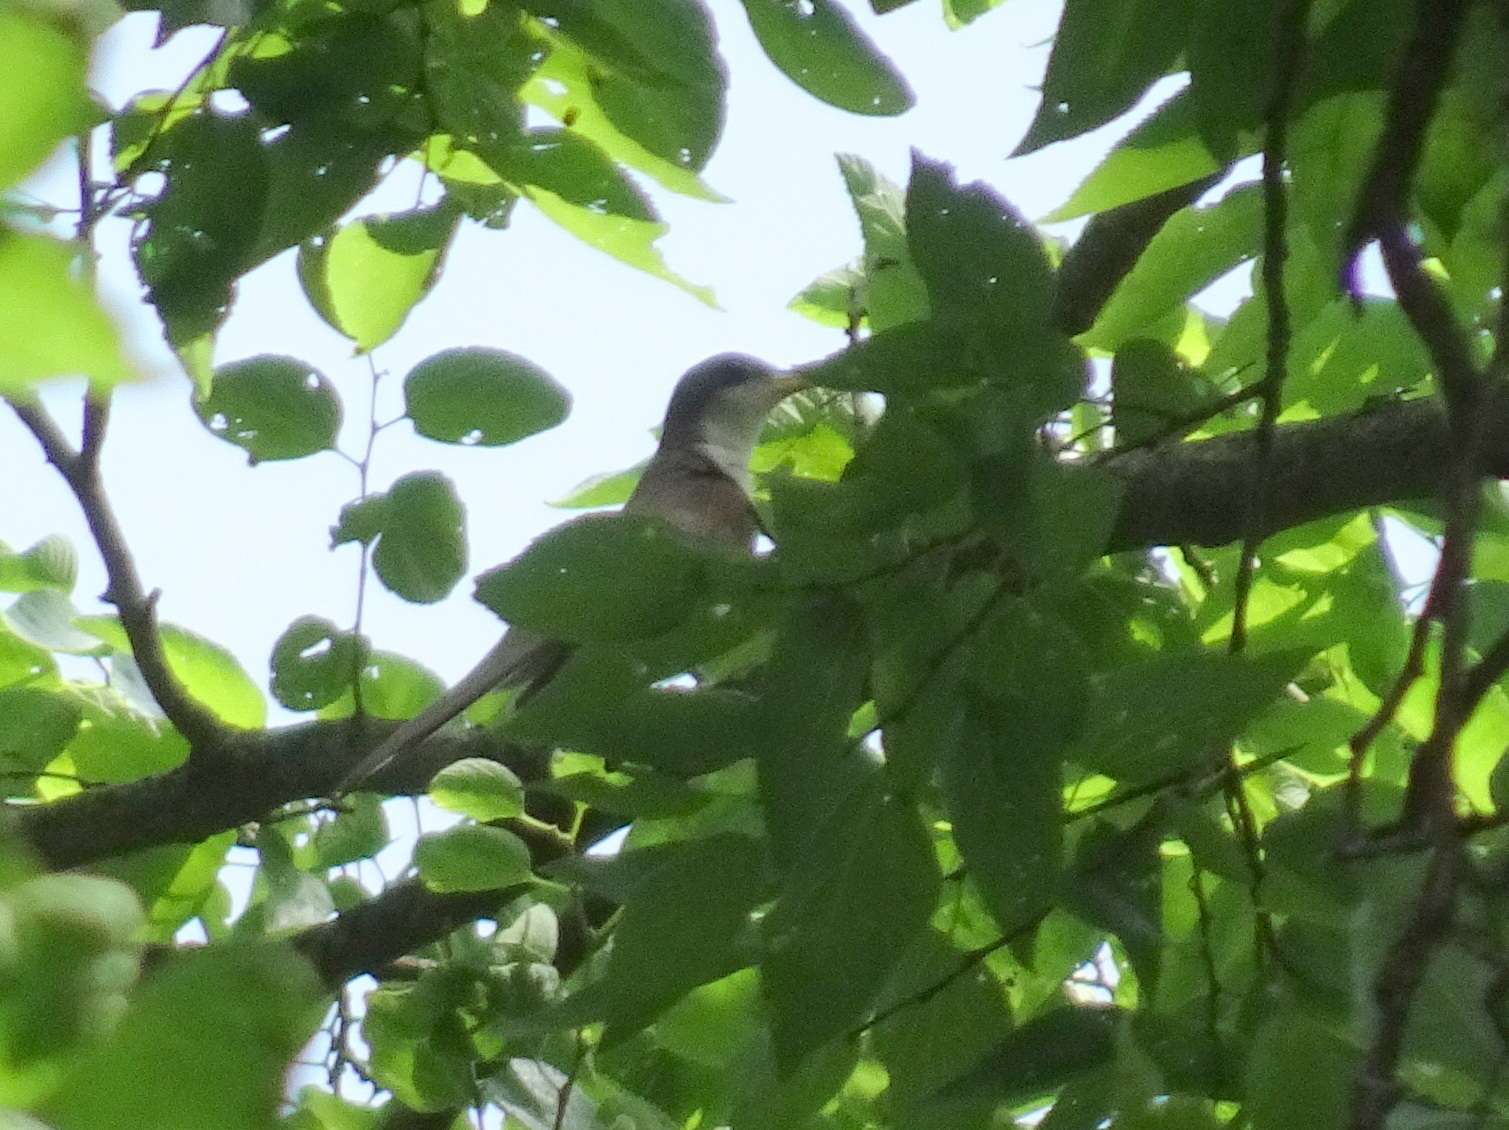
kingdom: Animalia
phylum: Chordata
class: Aves
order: Cuculiformes
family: Cuculidae
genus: Coccyzus
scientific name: Coccyzus americanus
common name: Yellow-billed cuckoo
